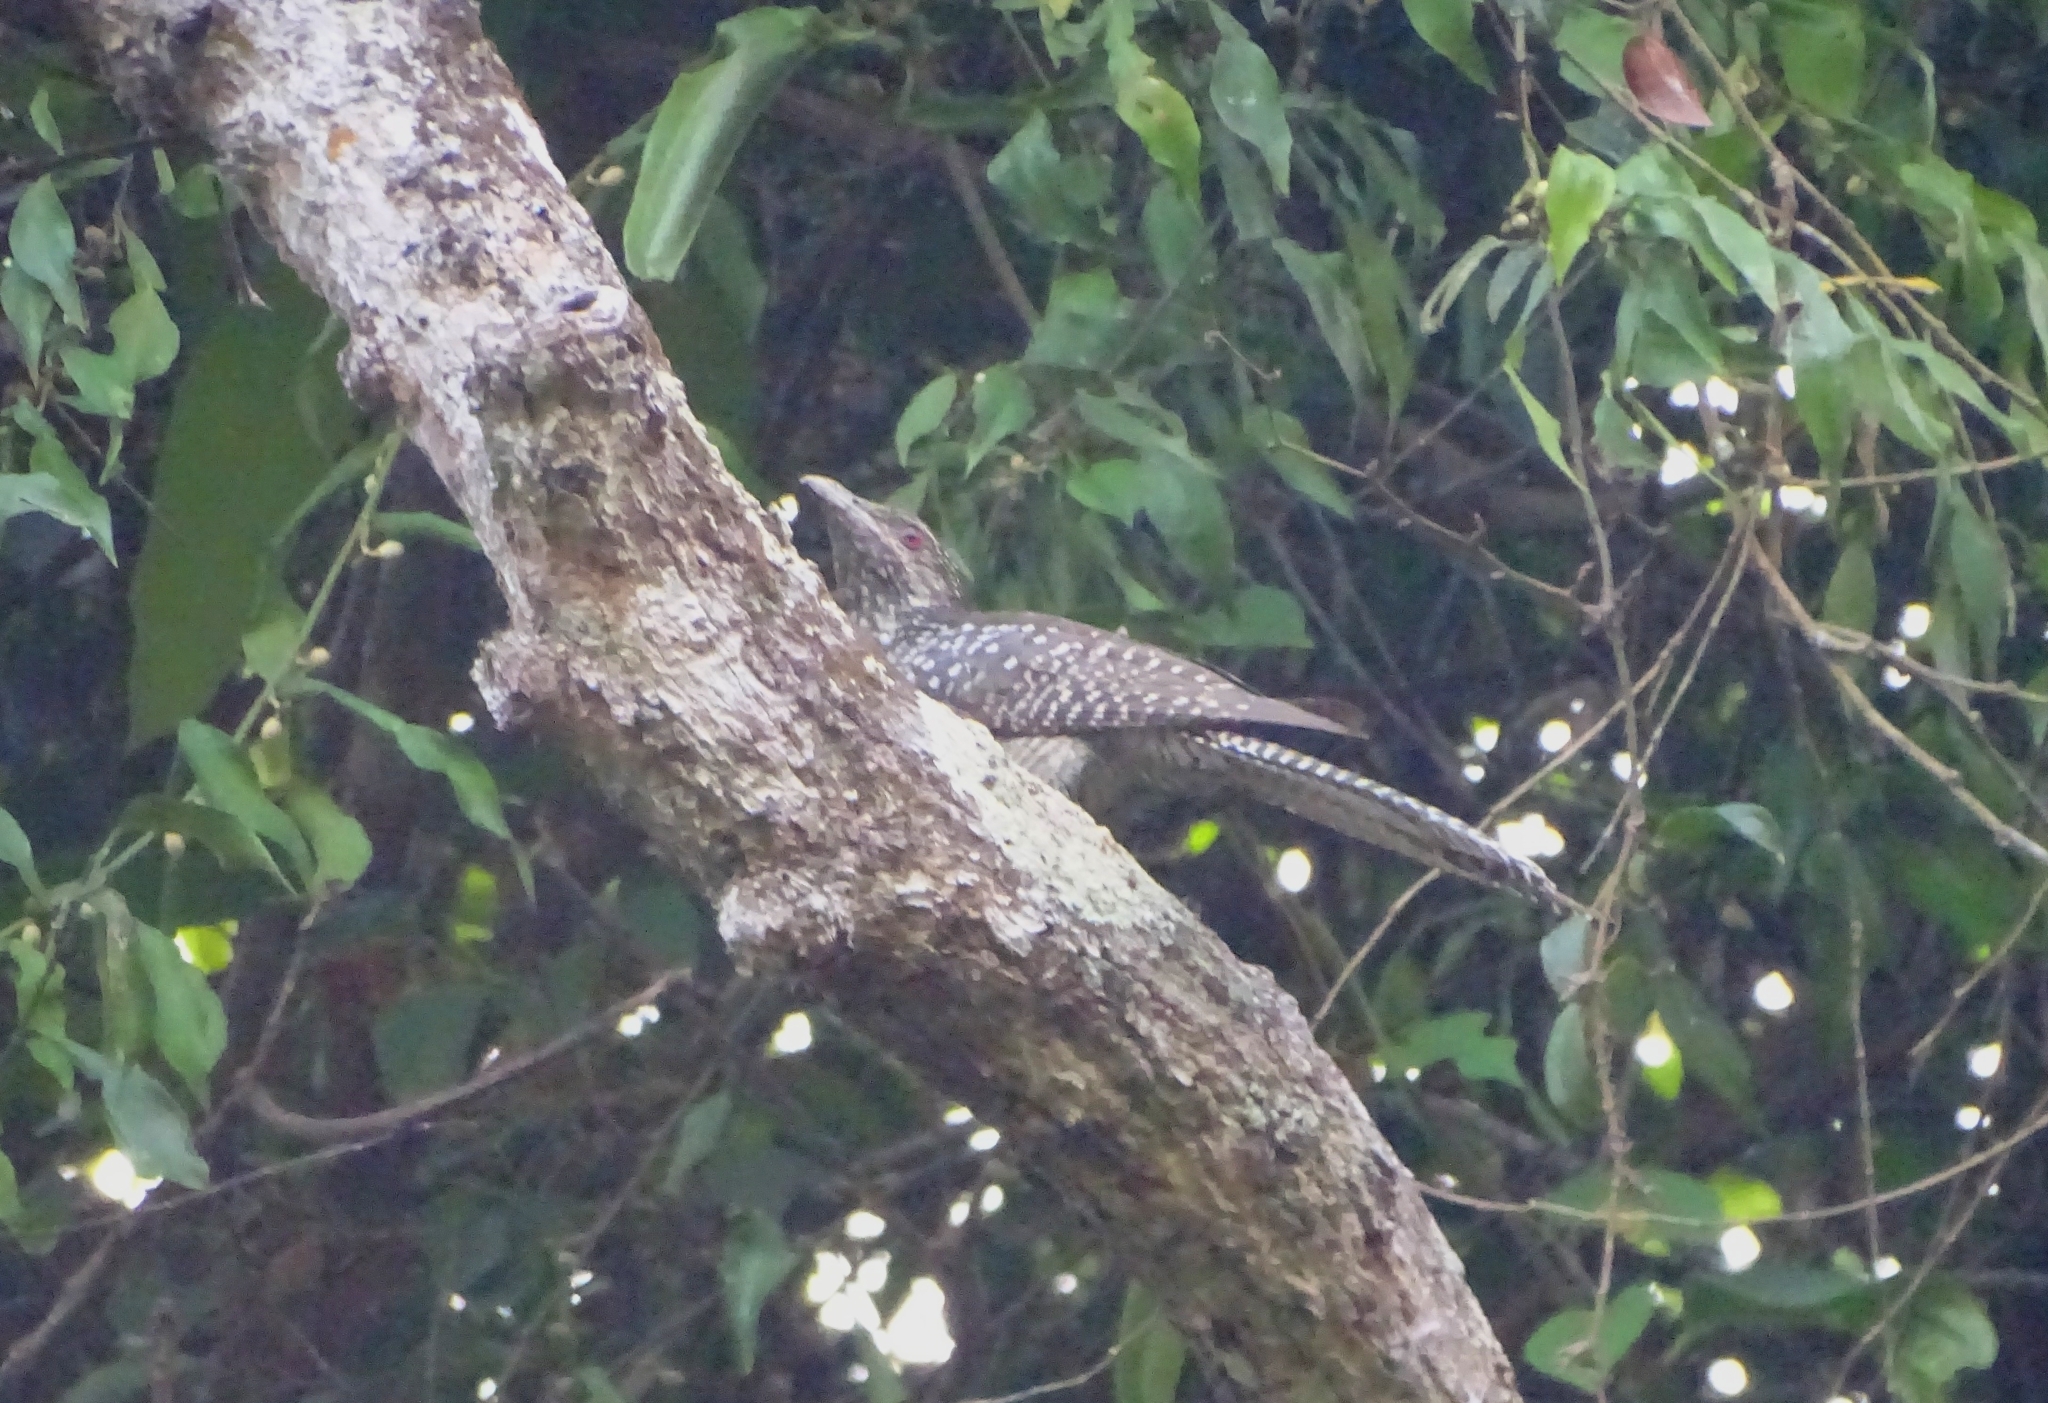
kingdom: Animalia
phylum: Chordata
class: Aves
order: Cuculiformes
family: Cuculidae
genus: Eudynamys
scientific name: Eudynamys scolopaceus
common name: Asian koel
